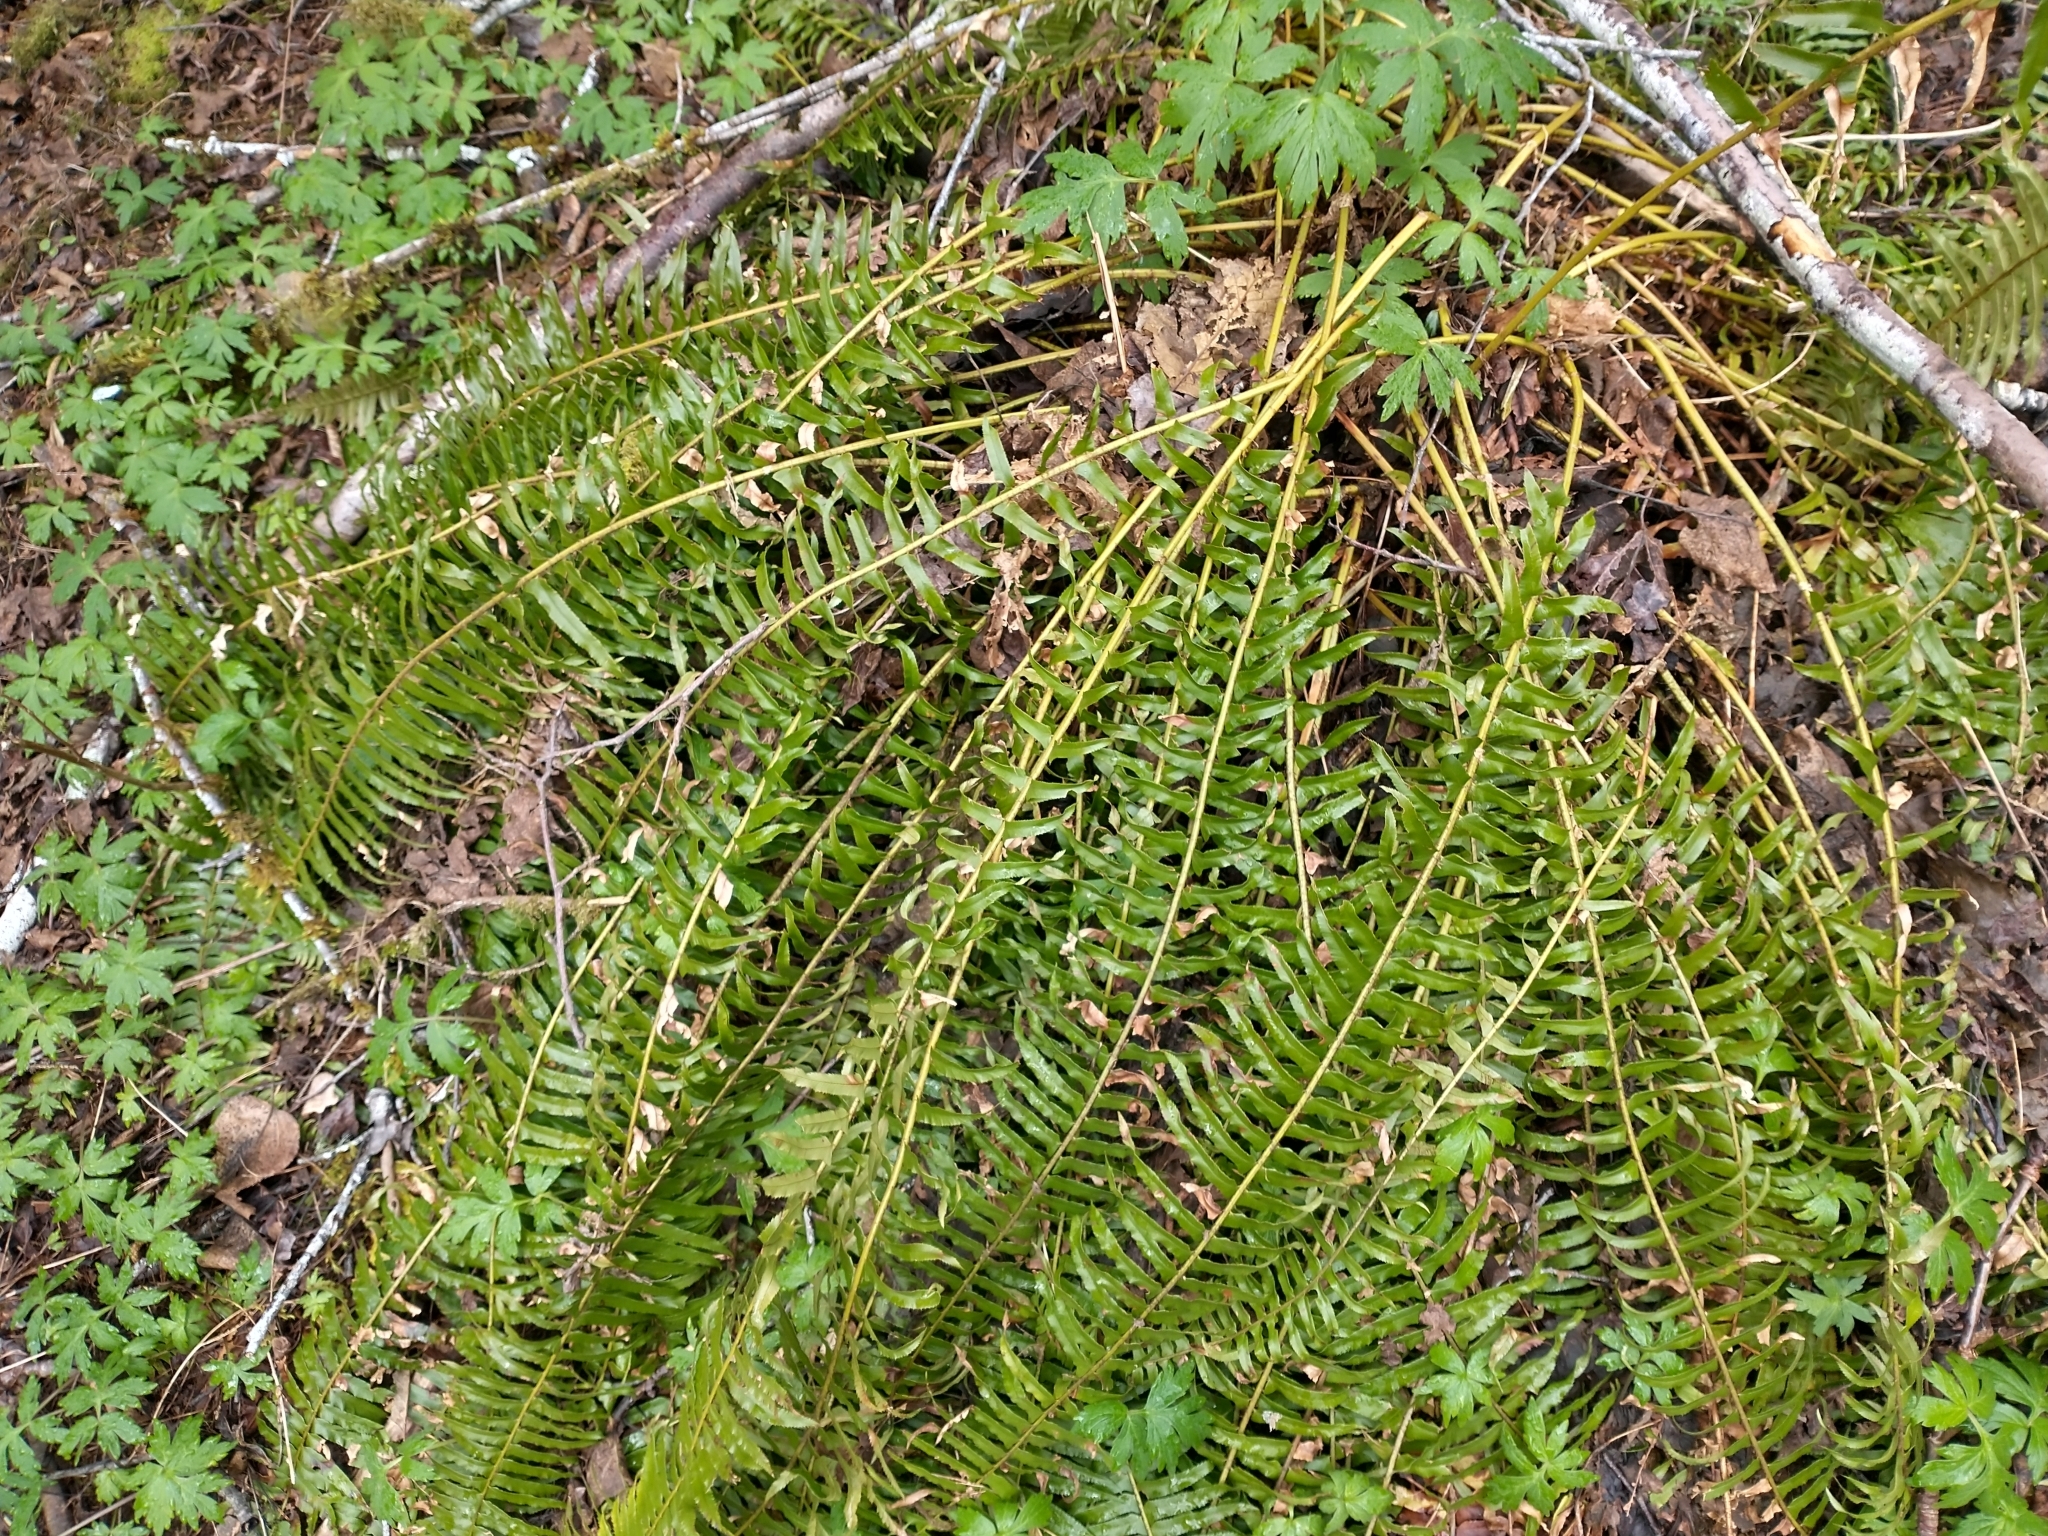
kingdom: Plantae
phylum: Tracheophyta
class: Polypodiopsida
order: Polypodiales
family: Dryopteridaceae
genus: Polystichum
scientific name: Polystichum munitum
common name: Western sword-fern
